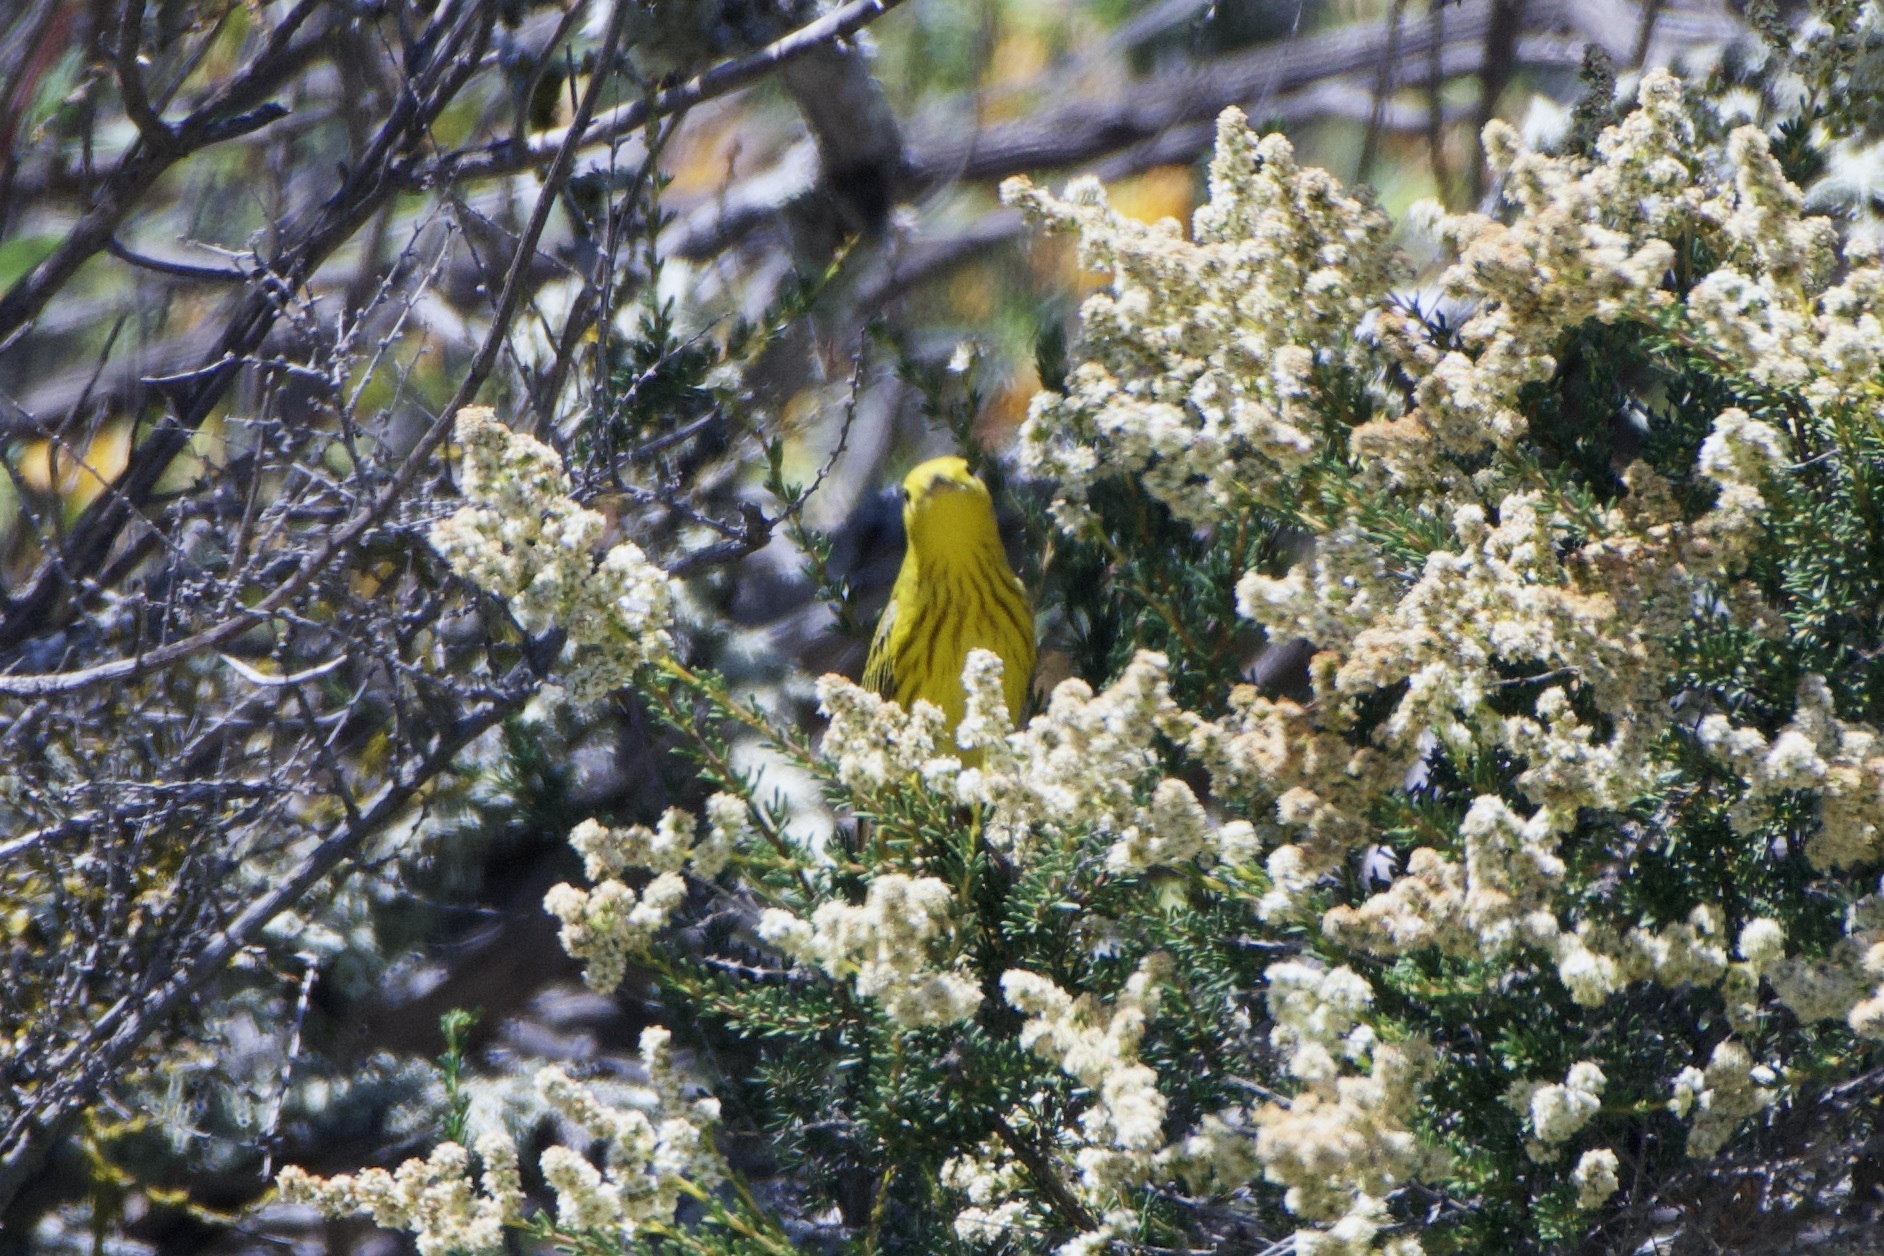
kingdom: Animalia
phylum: Chordata
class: Aves
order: Passeriformes
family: Parulidae
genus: Setophaga
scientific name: Setophaga petechia
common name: Yellow warbler
